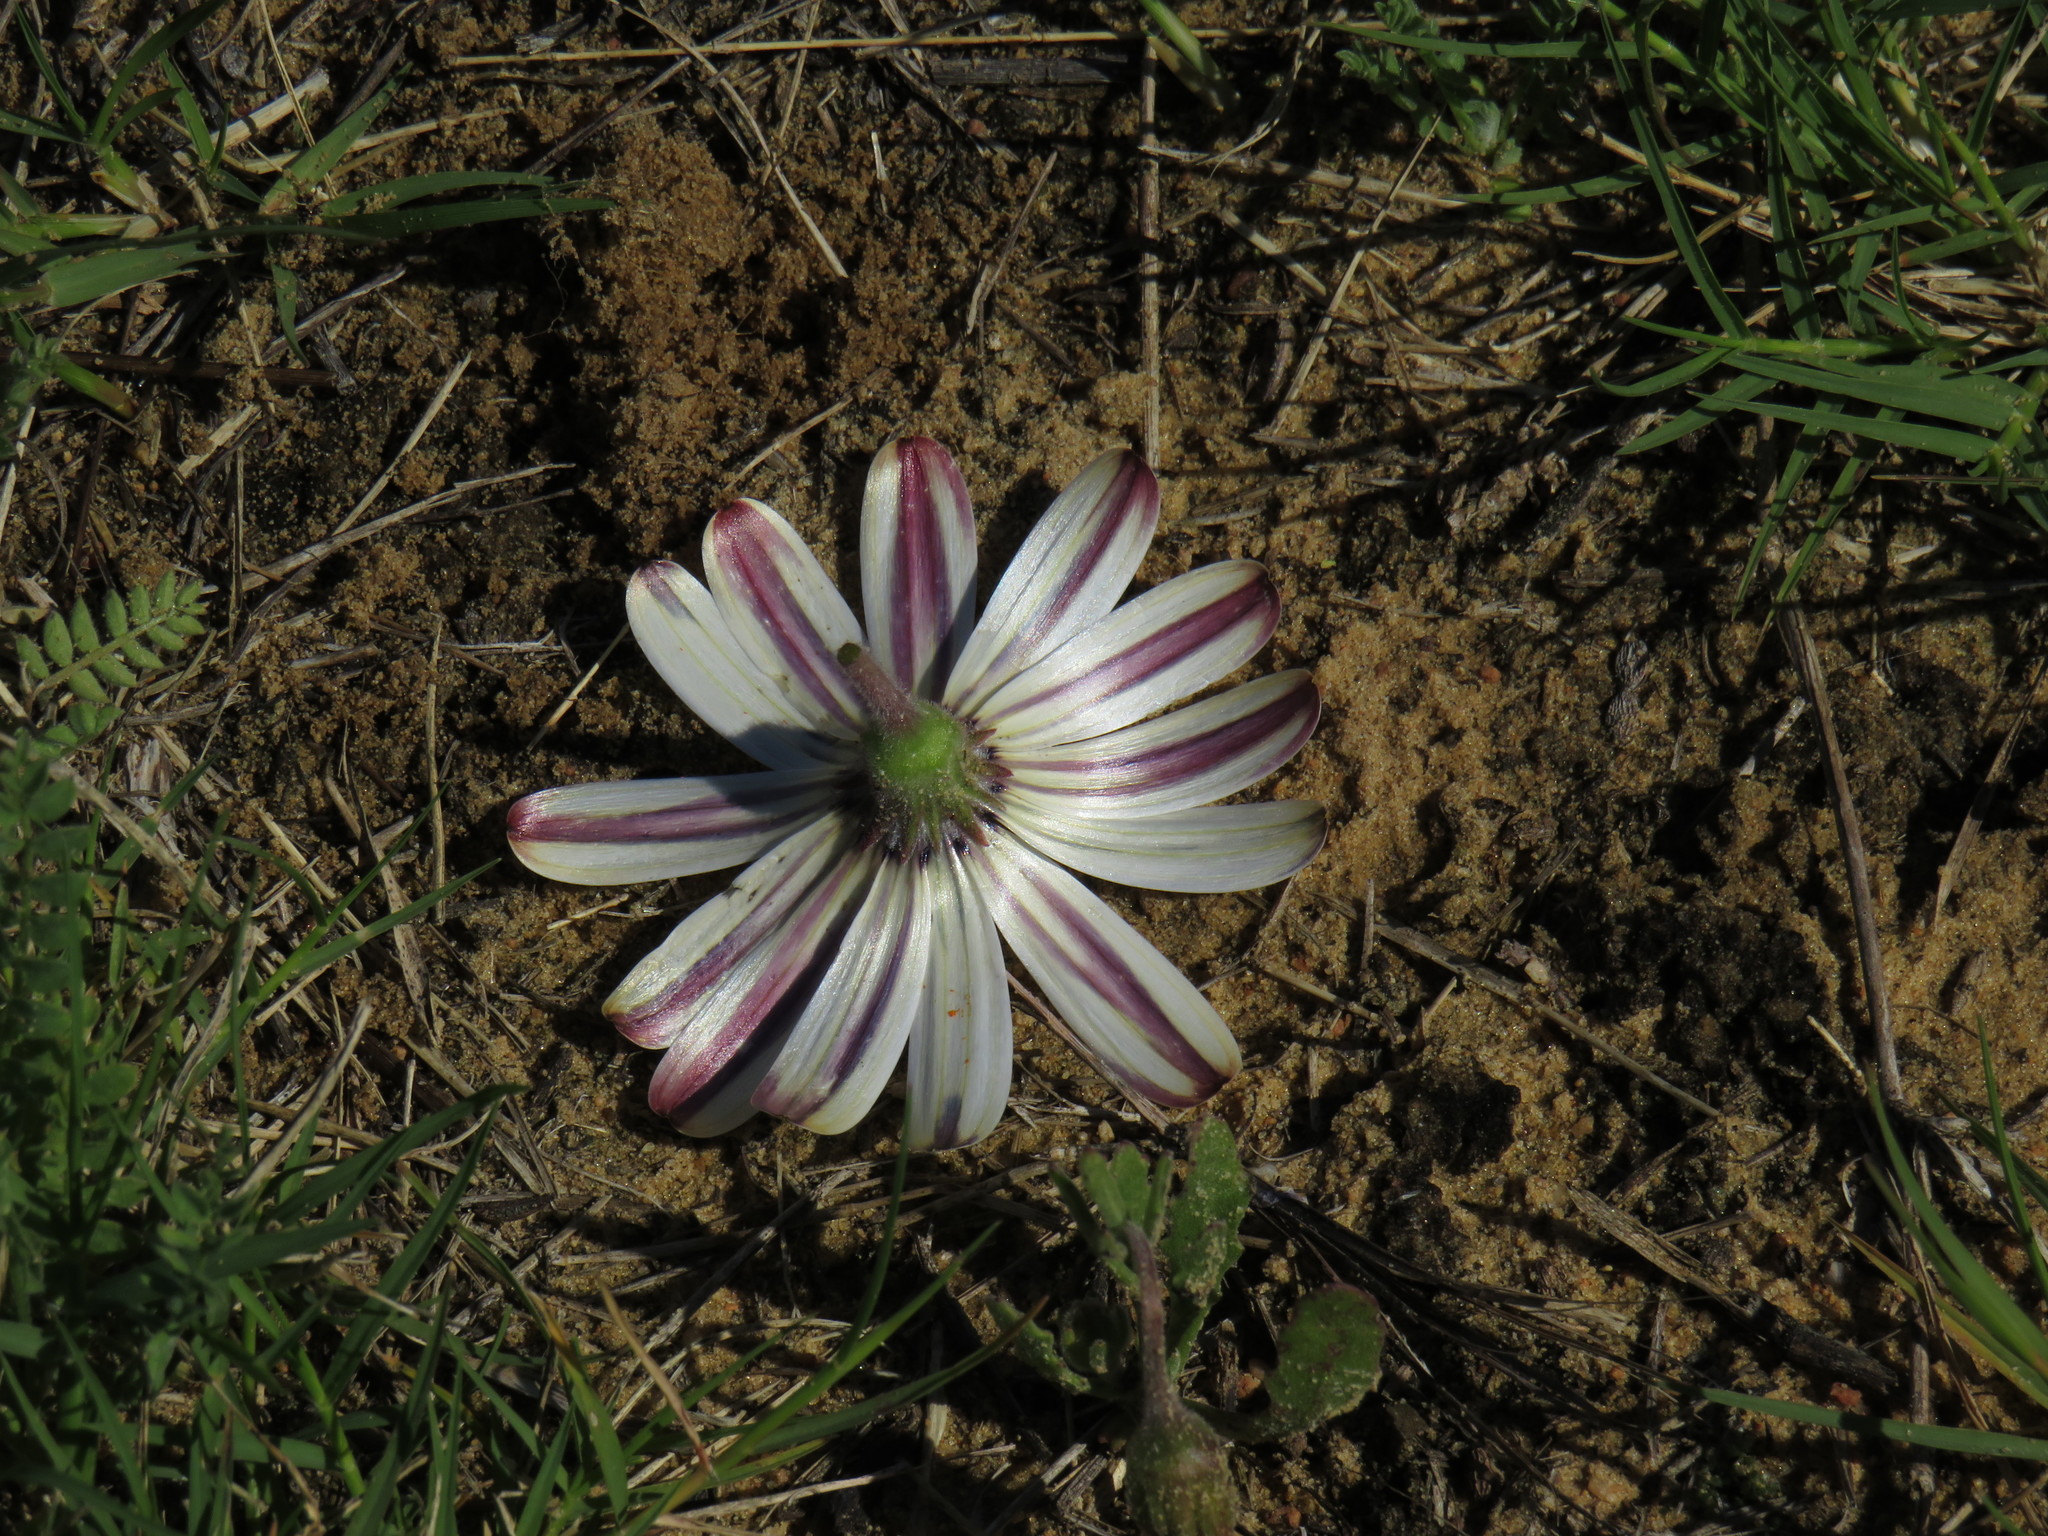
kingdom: Plantae
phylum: Tracheophyta
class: Magnoliopsida
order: Asterales
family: Asteraceae
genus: Dimorphotheca
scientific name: Dimorphotheca pluvialis
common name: Weather prophet
